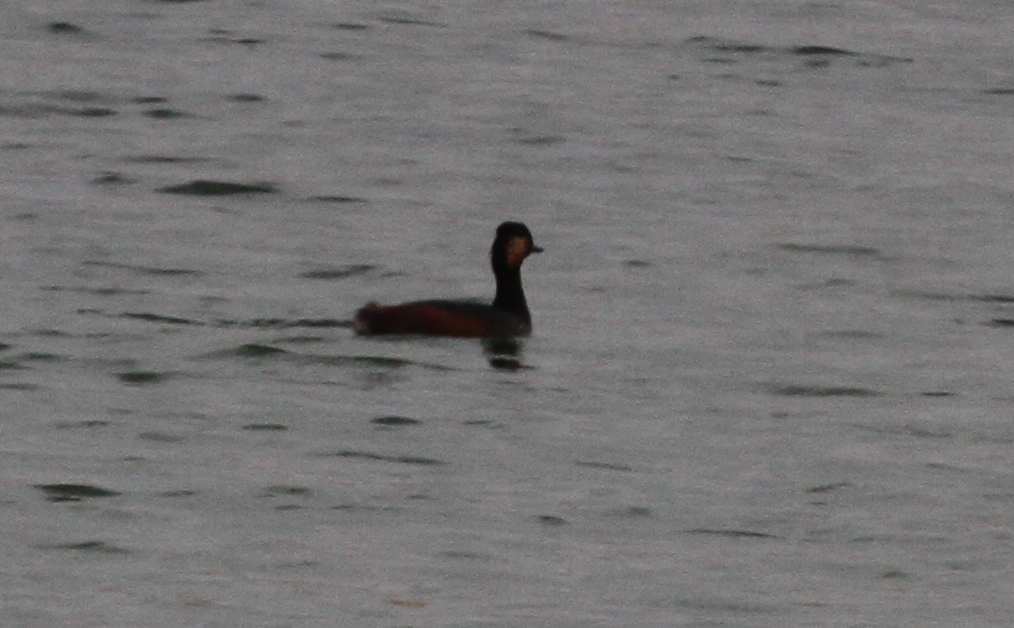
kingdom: Animalia
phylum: Chordata
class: Aves
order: Podicipediformes
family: Podicipedidae
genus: Podiceps
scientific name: Podiceps nigricollis
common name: Black-necked grebe
